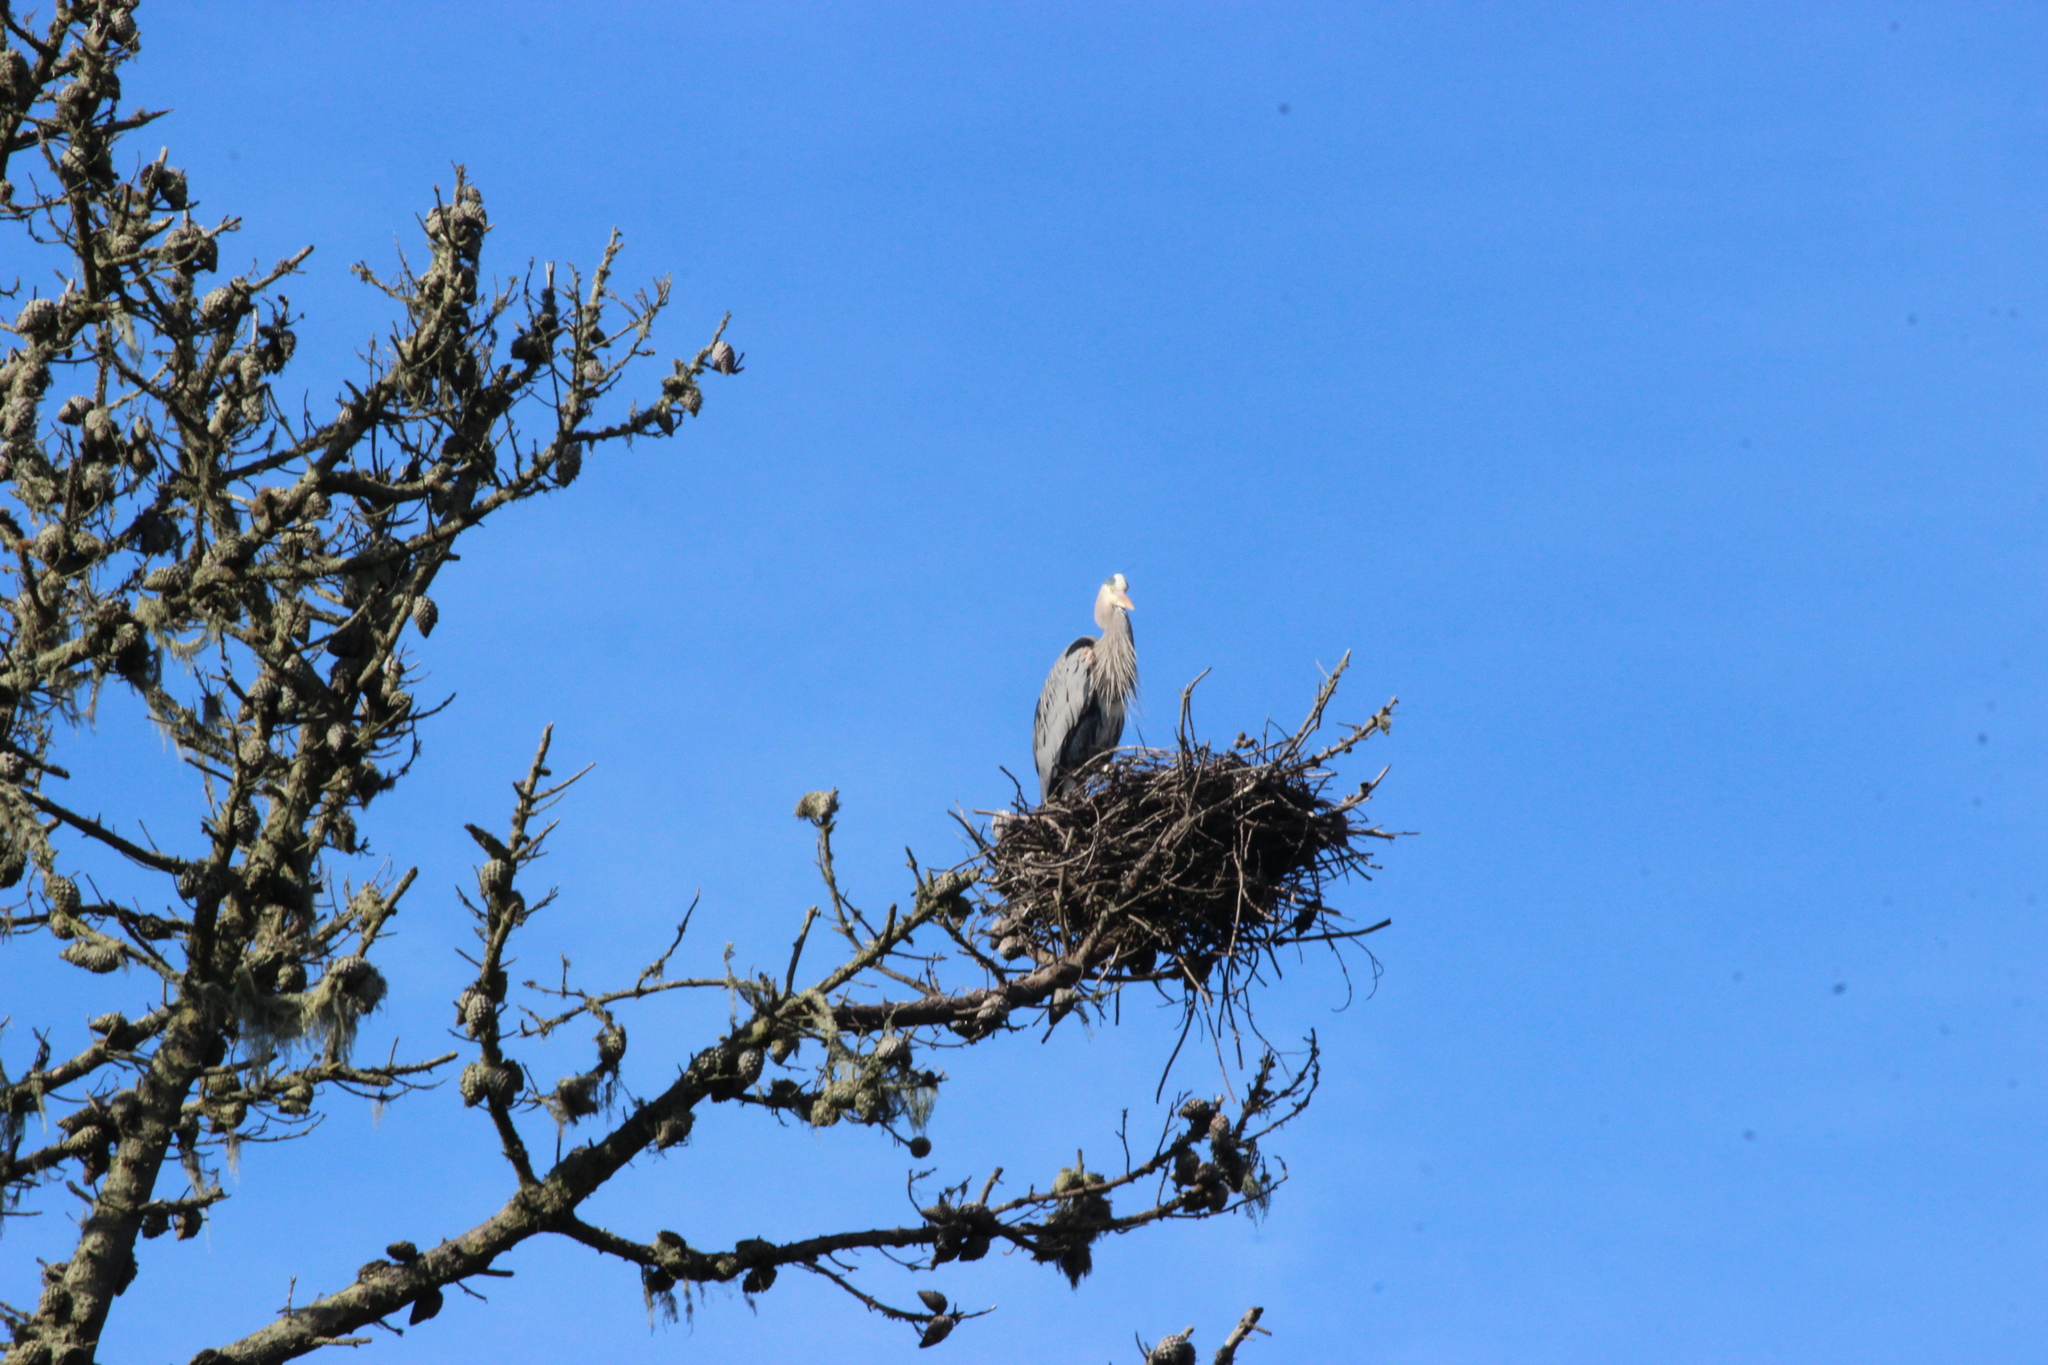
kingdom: Animalia
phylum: Chordata
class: Aves
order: Pelecaniformes
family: Ardeidae
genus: Ardea
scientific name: Ardea herodias
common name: Great blue heron
